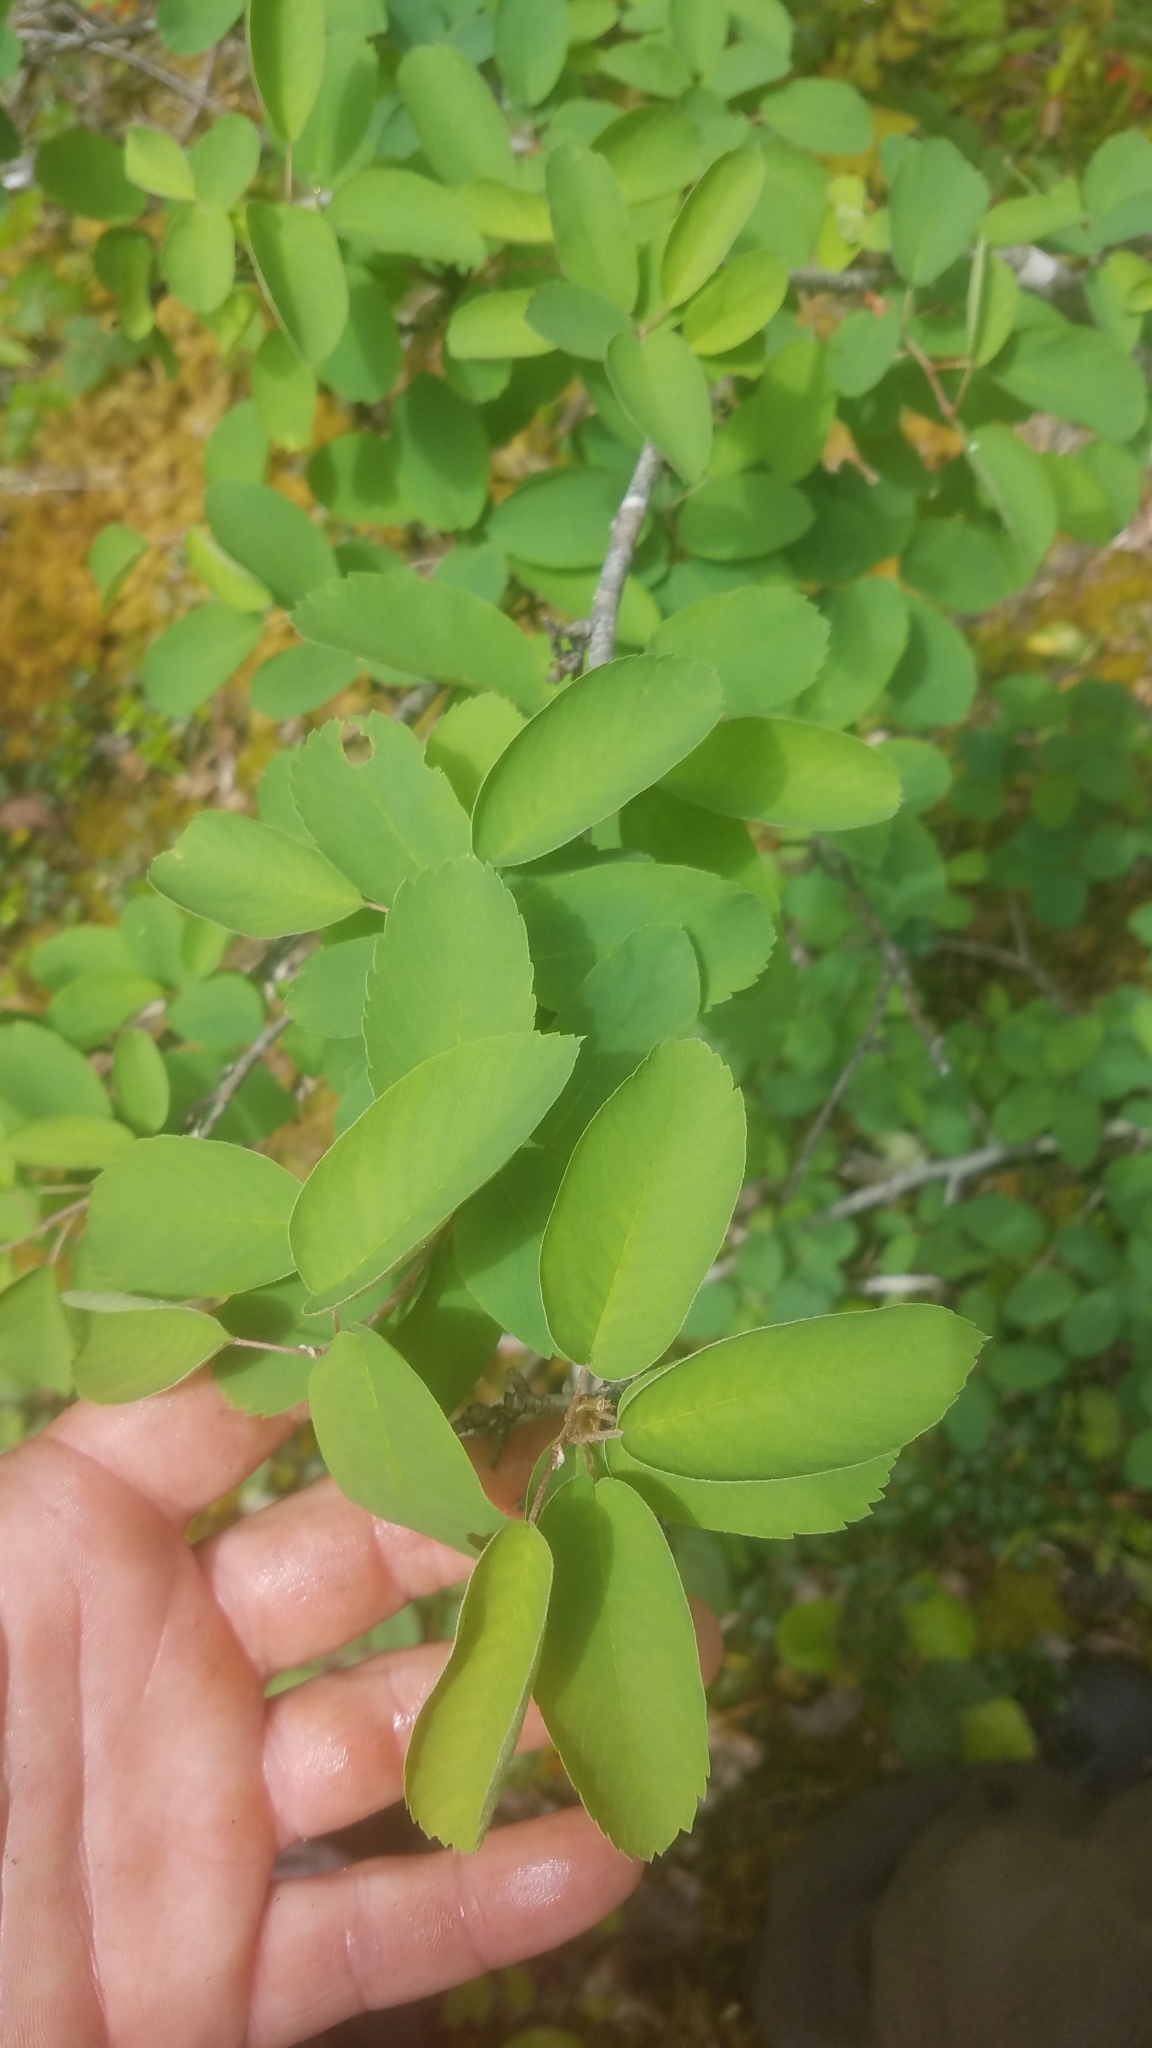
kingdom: Plantae
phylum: Tracheophyta
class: Magnoliopsida
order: Rosales
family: Rosaceae
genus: Amelanchier
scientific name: Amelanchier alnifolia
